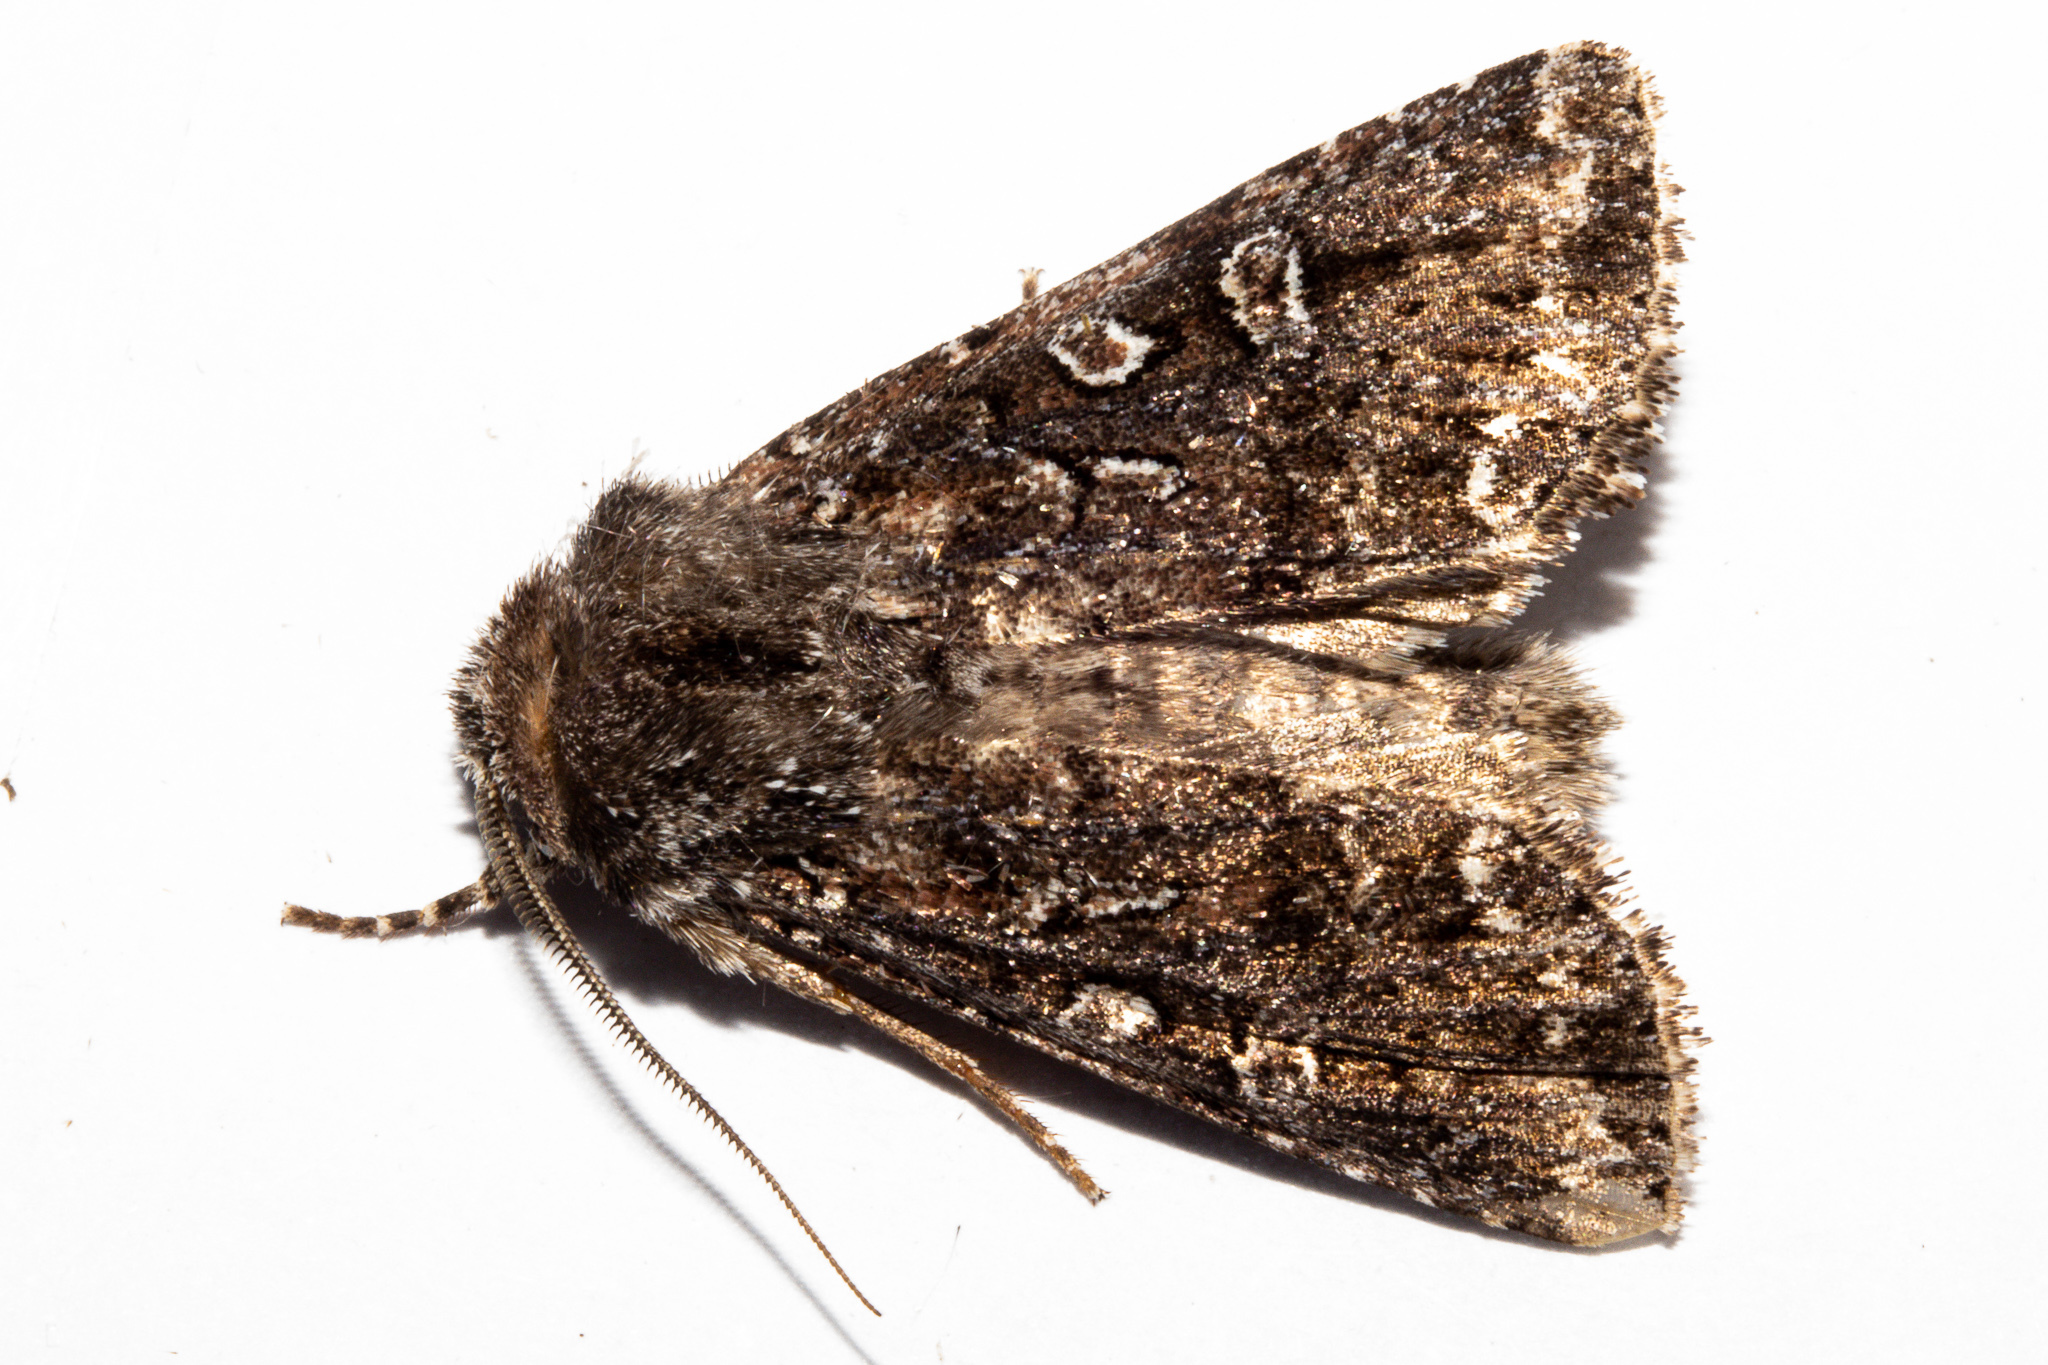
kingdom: Animalia
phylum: Arthropoda
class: Insecta
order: Lepidoptera
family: Noctuidae
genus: Ichneutica
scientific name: Ichneutica lithias
